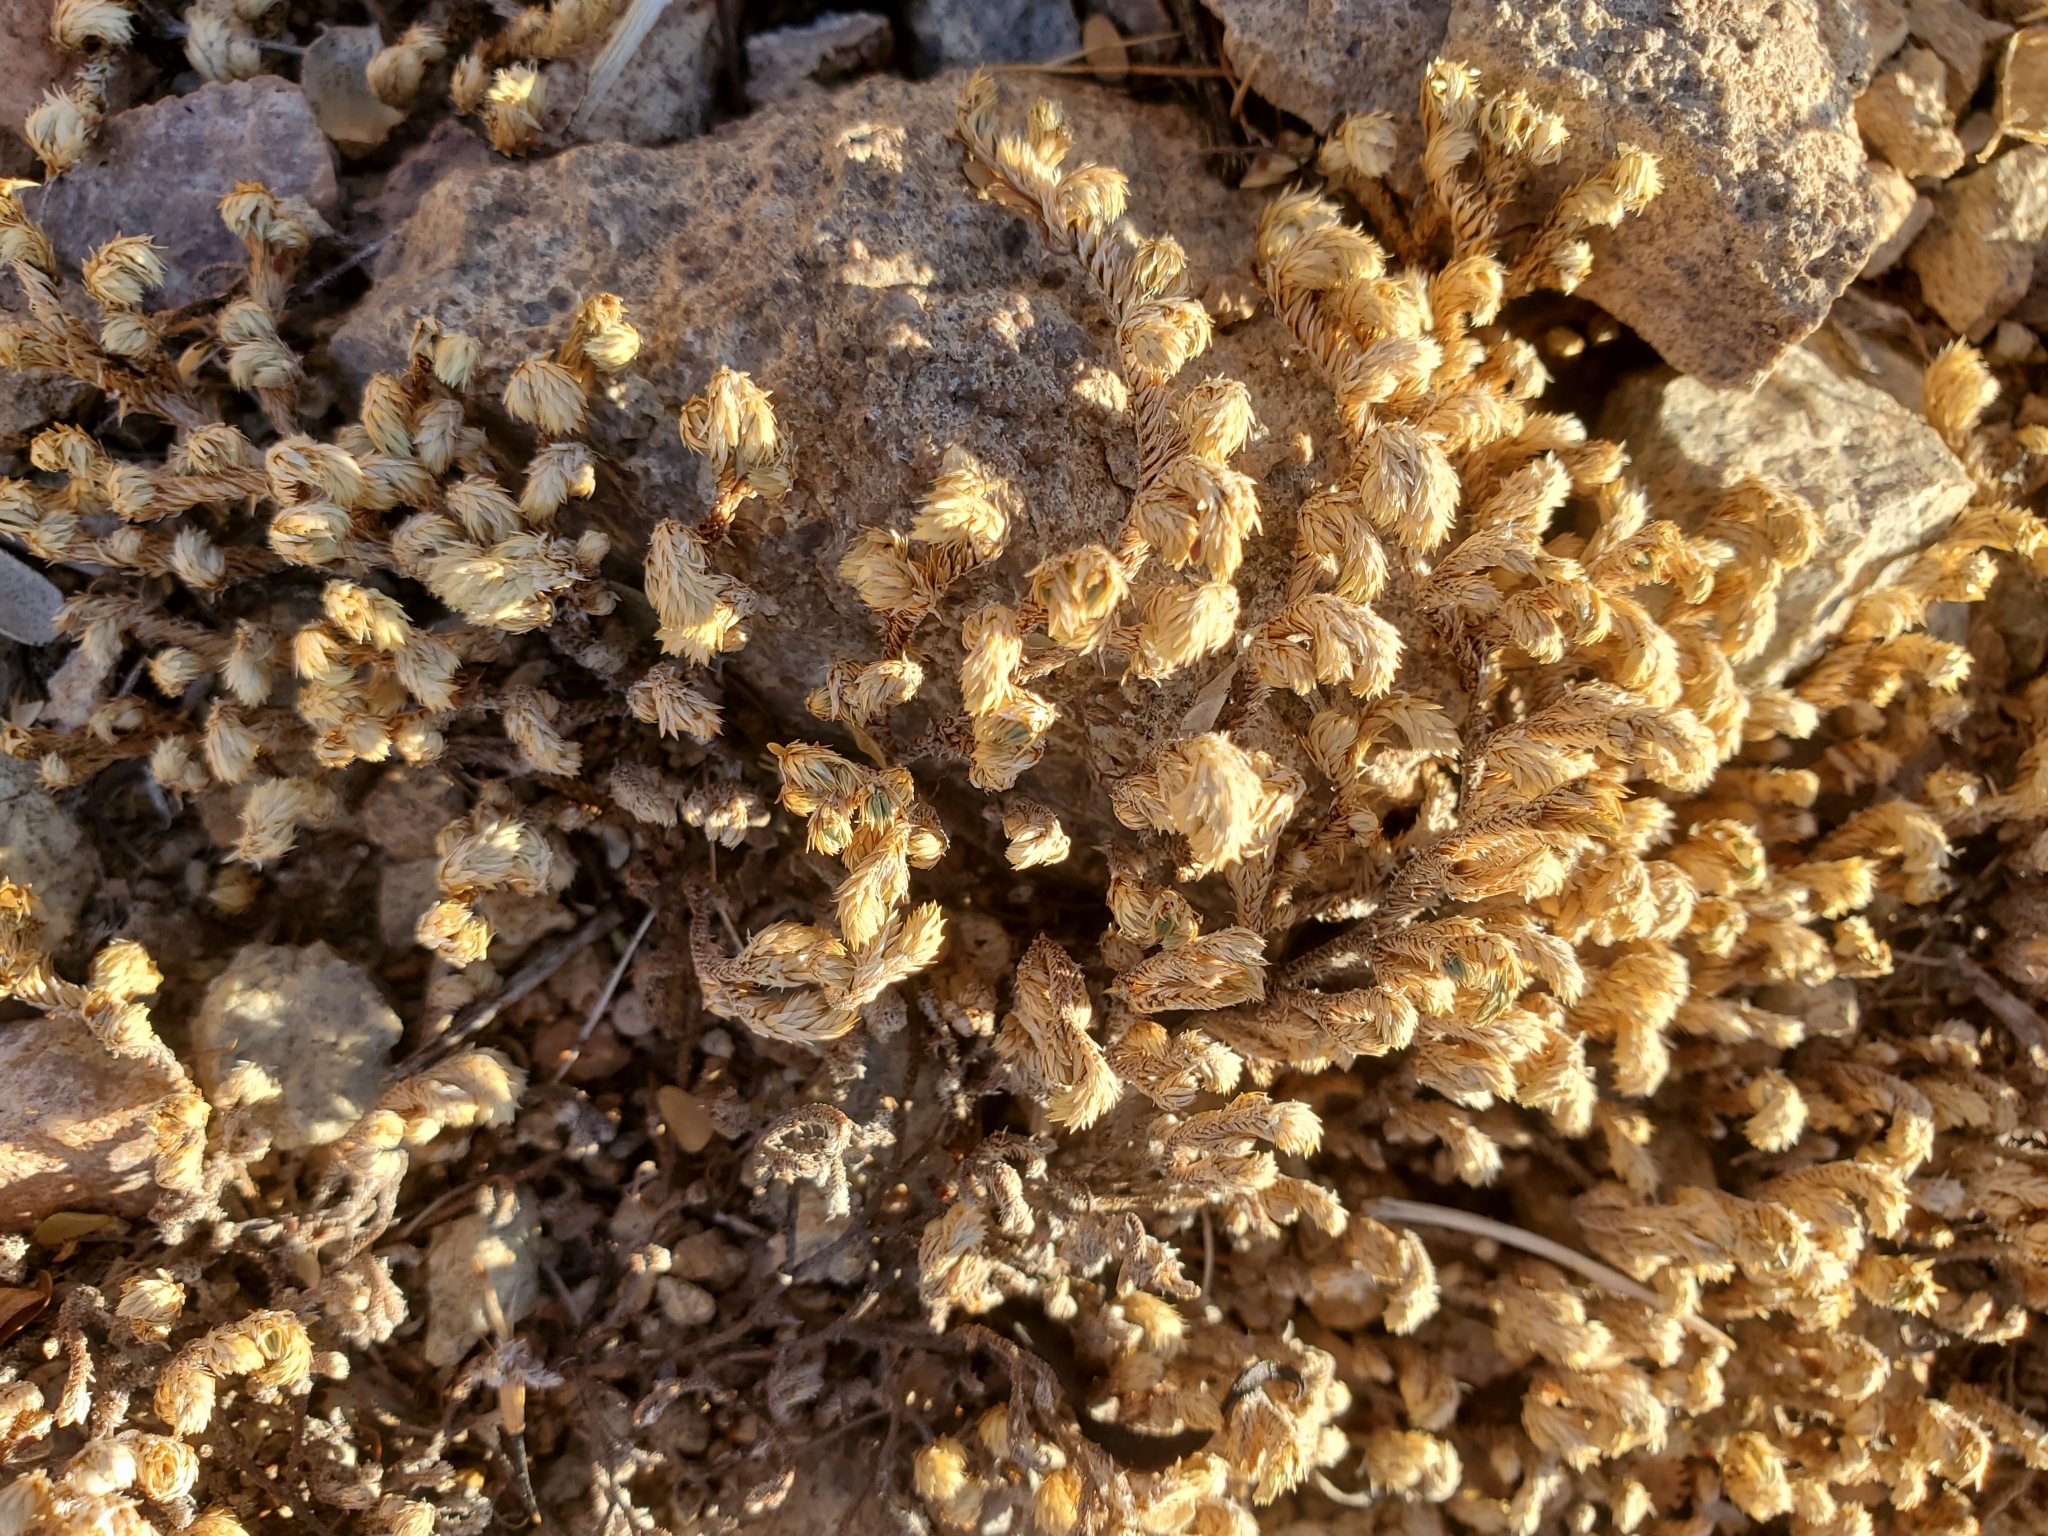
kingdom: Plantae
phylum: Tracheophyta
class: Lycopodiopsida
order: Selaginellales
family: Selaginellaceae
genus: Selaginella
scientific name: Selaginella arizonica
